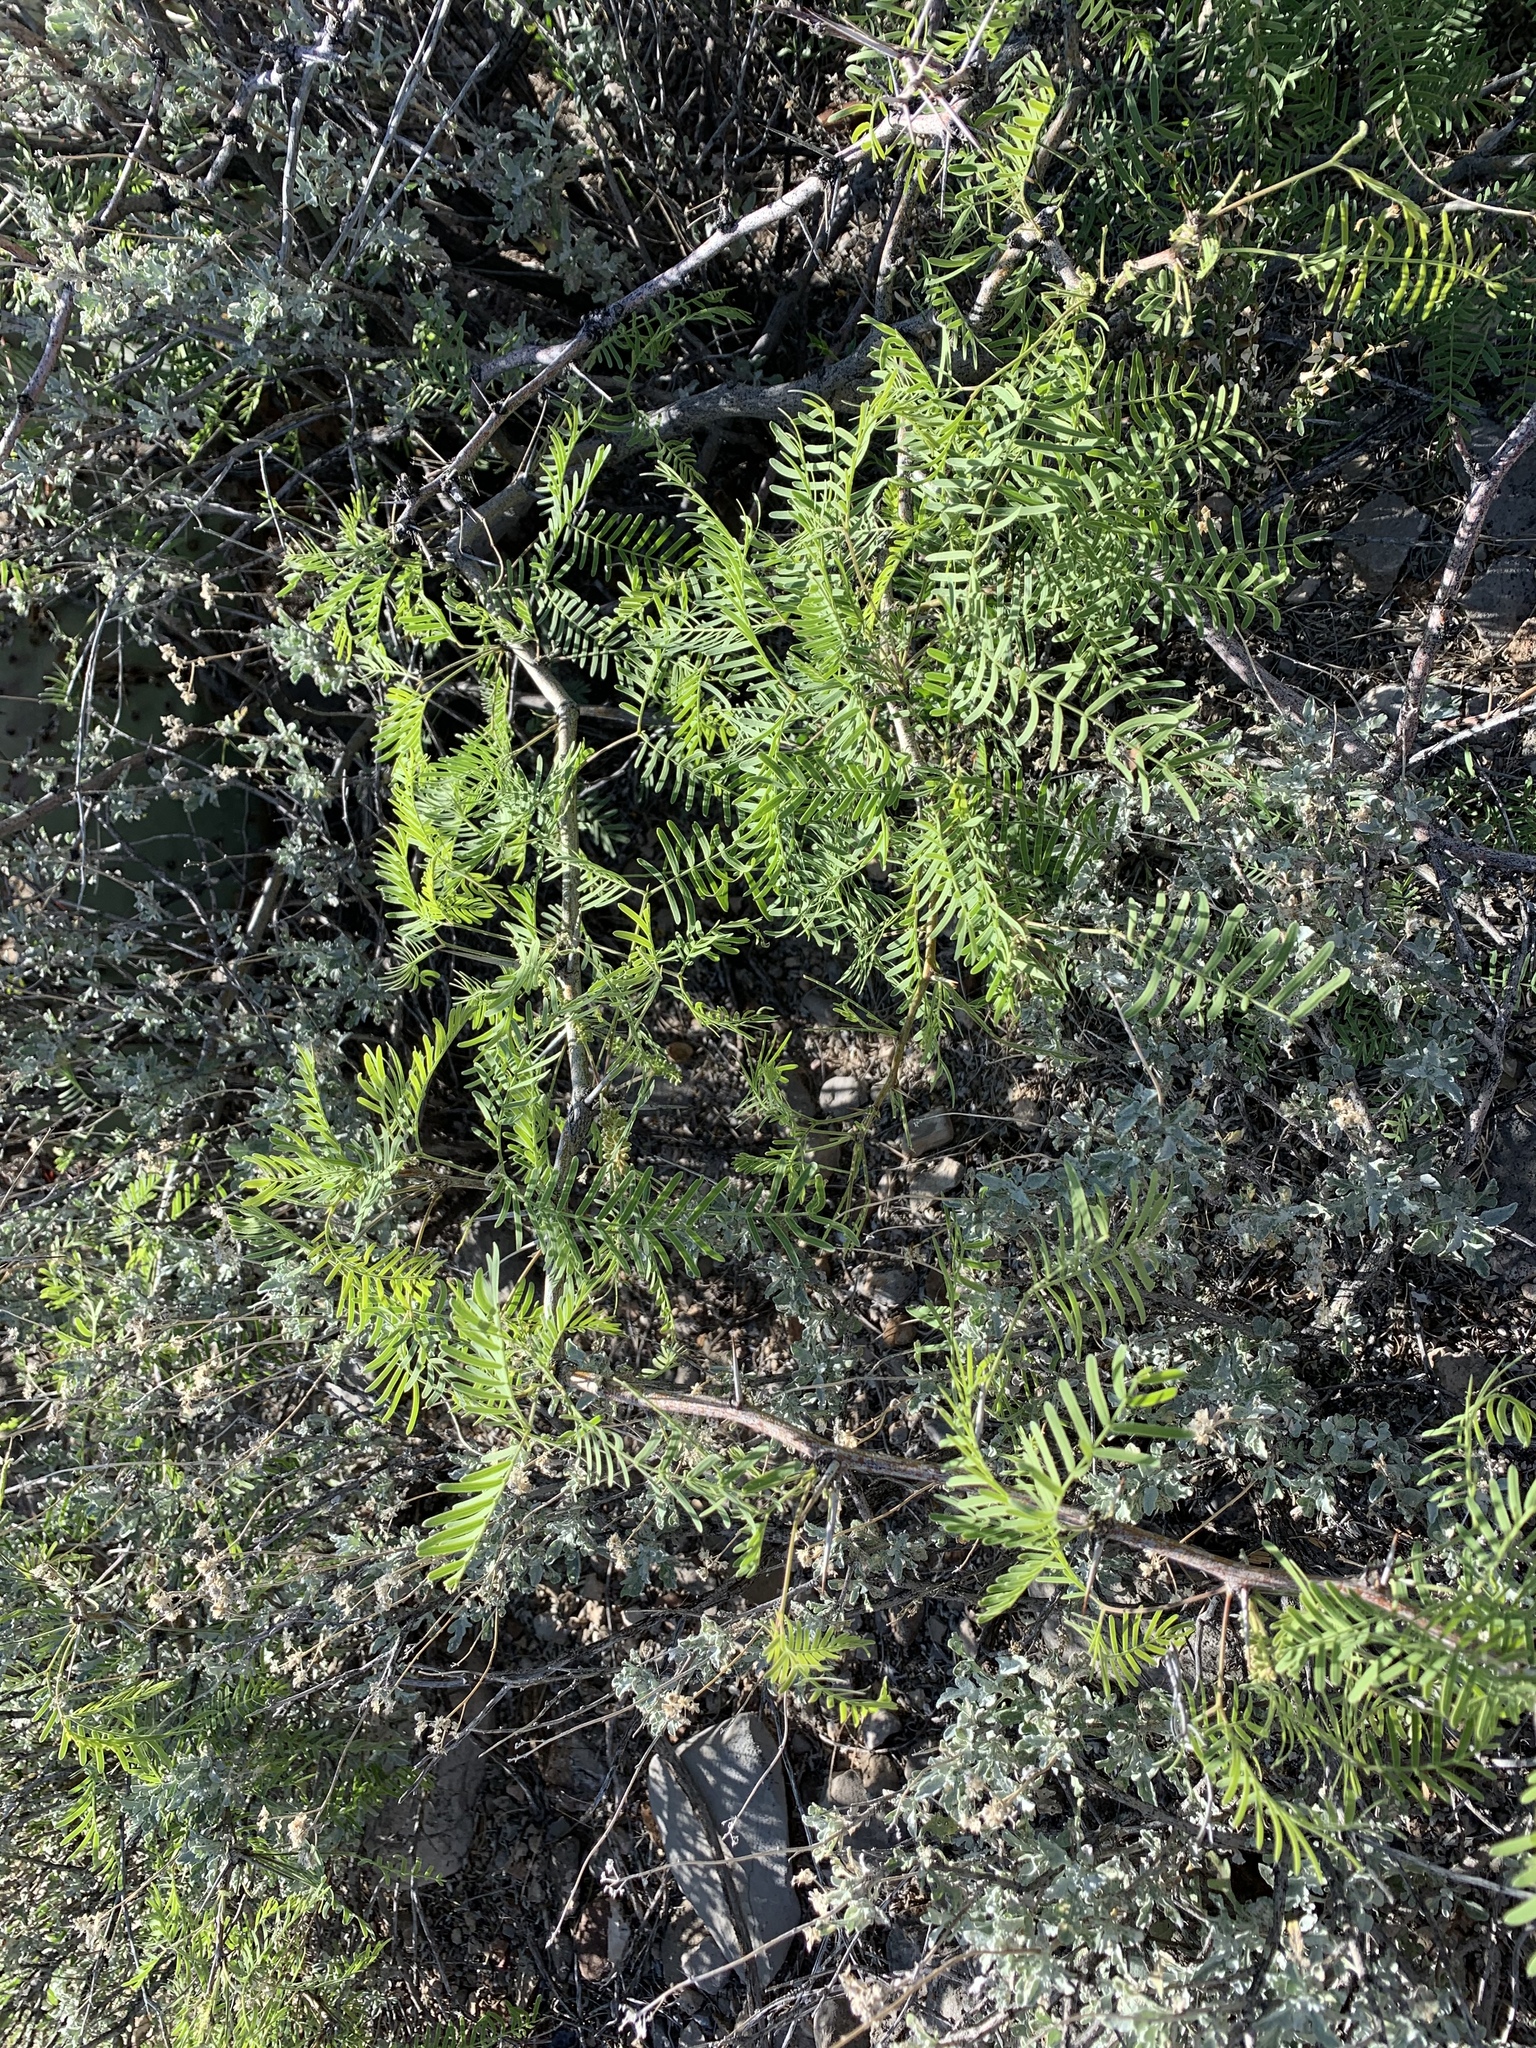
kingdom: Plantae
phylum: Tracheophyta
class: Magnoliopsida
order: Fabales
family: Fabaceae
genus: Prosopis
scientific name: Prosopis glandulosa
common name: Honey mesquite
